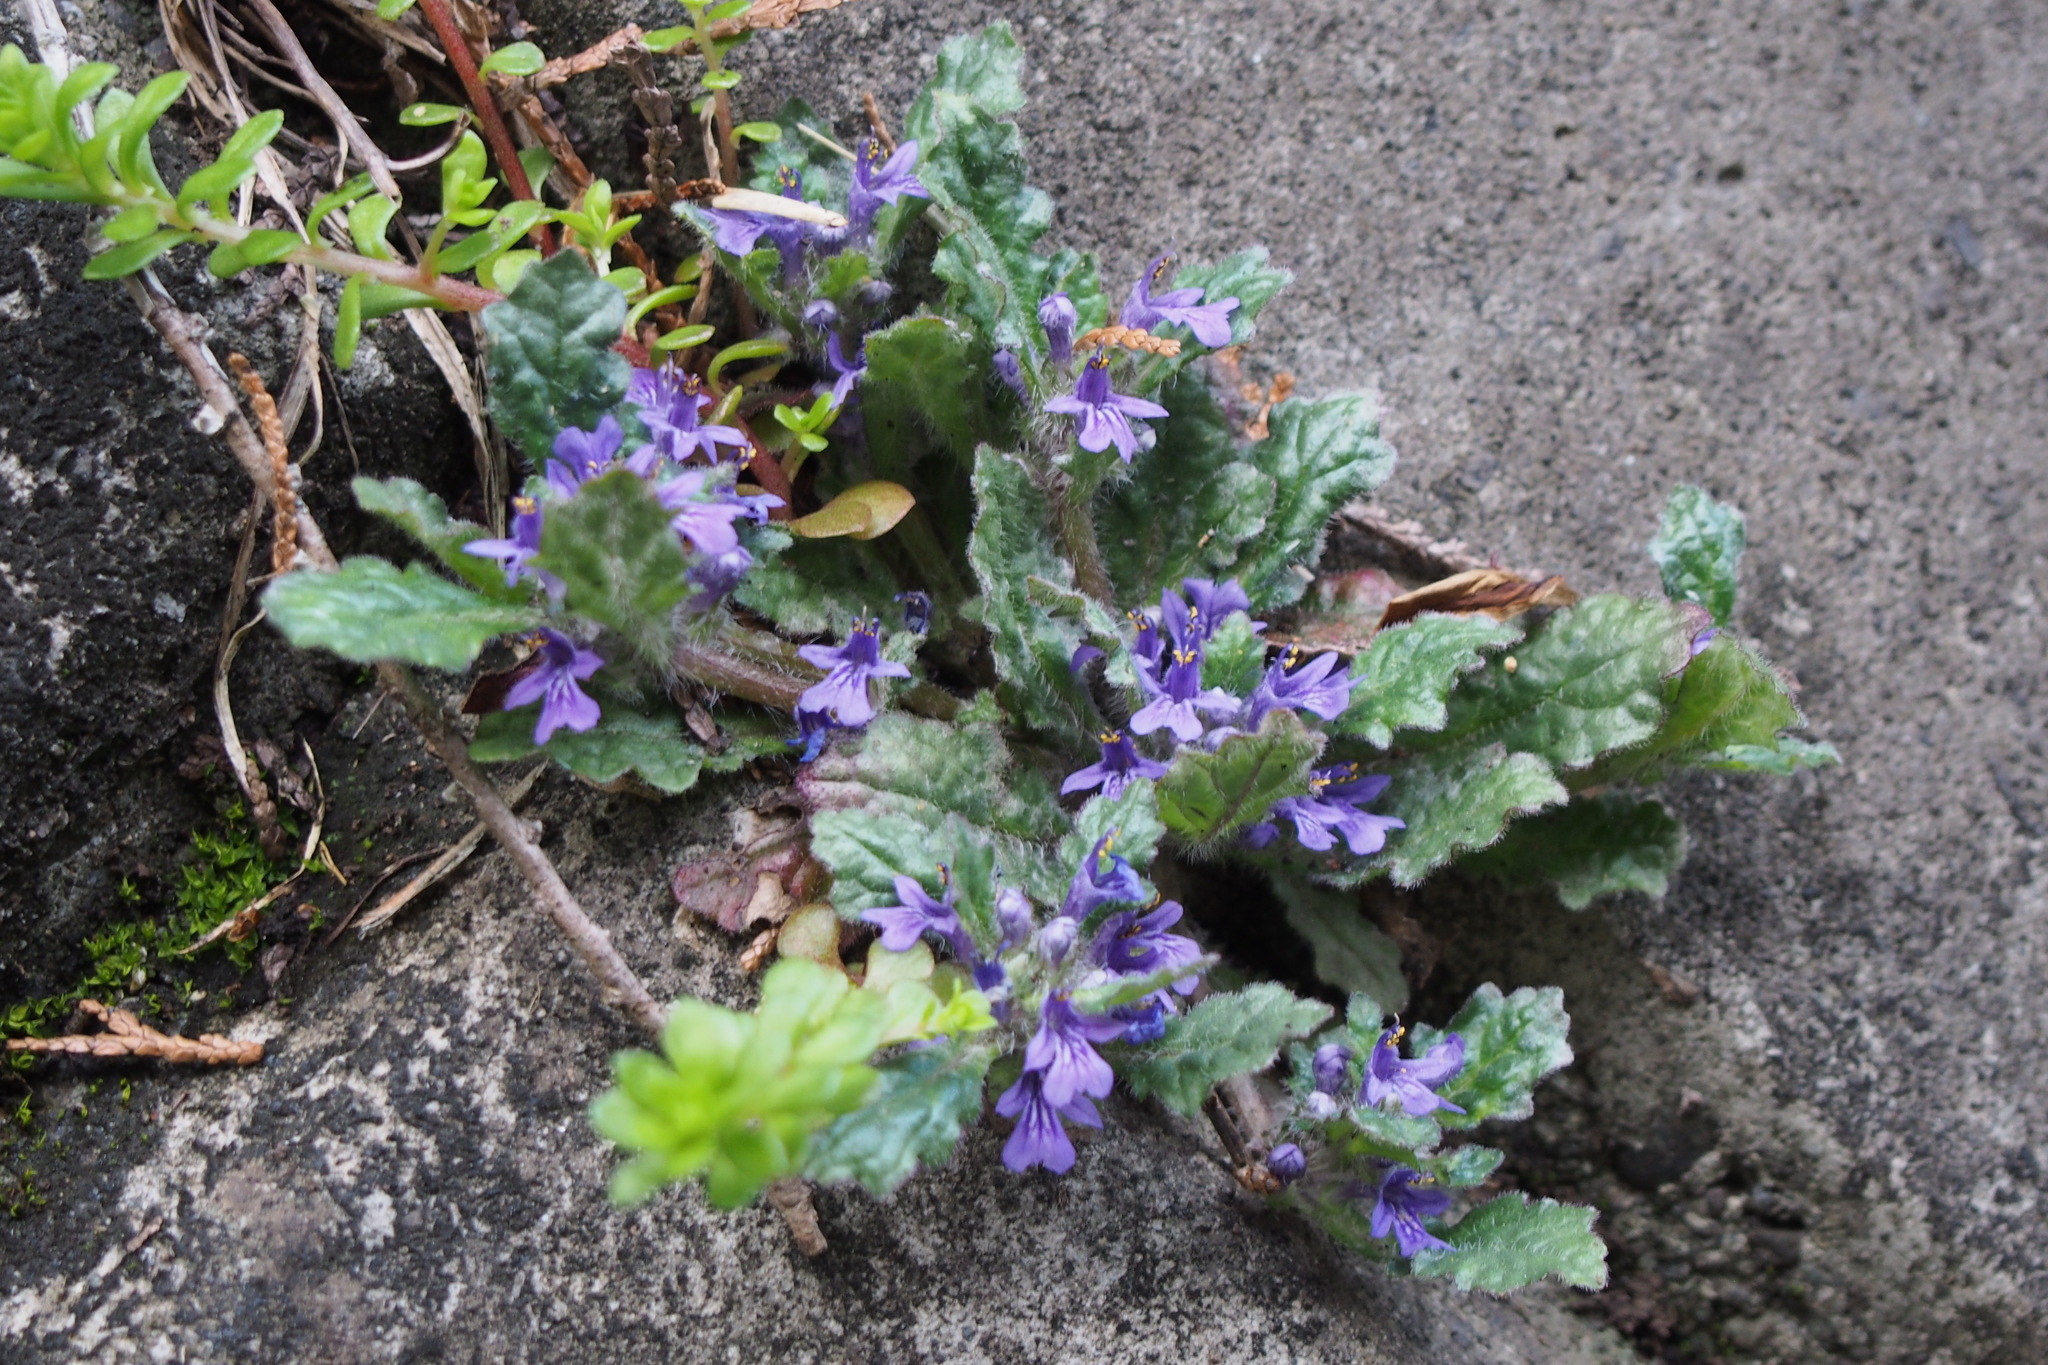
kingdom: Plantae
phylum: Tracheophyta
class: Magnoliopsida
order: Lamiales
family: Lamiaceae
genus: Ajuga
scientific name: Ajuga decumbens
